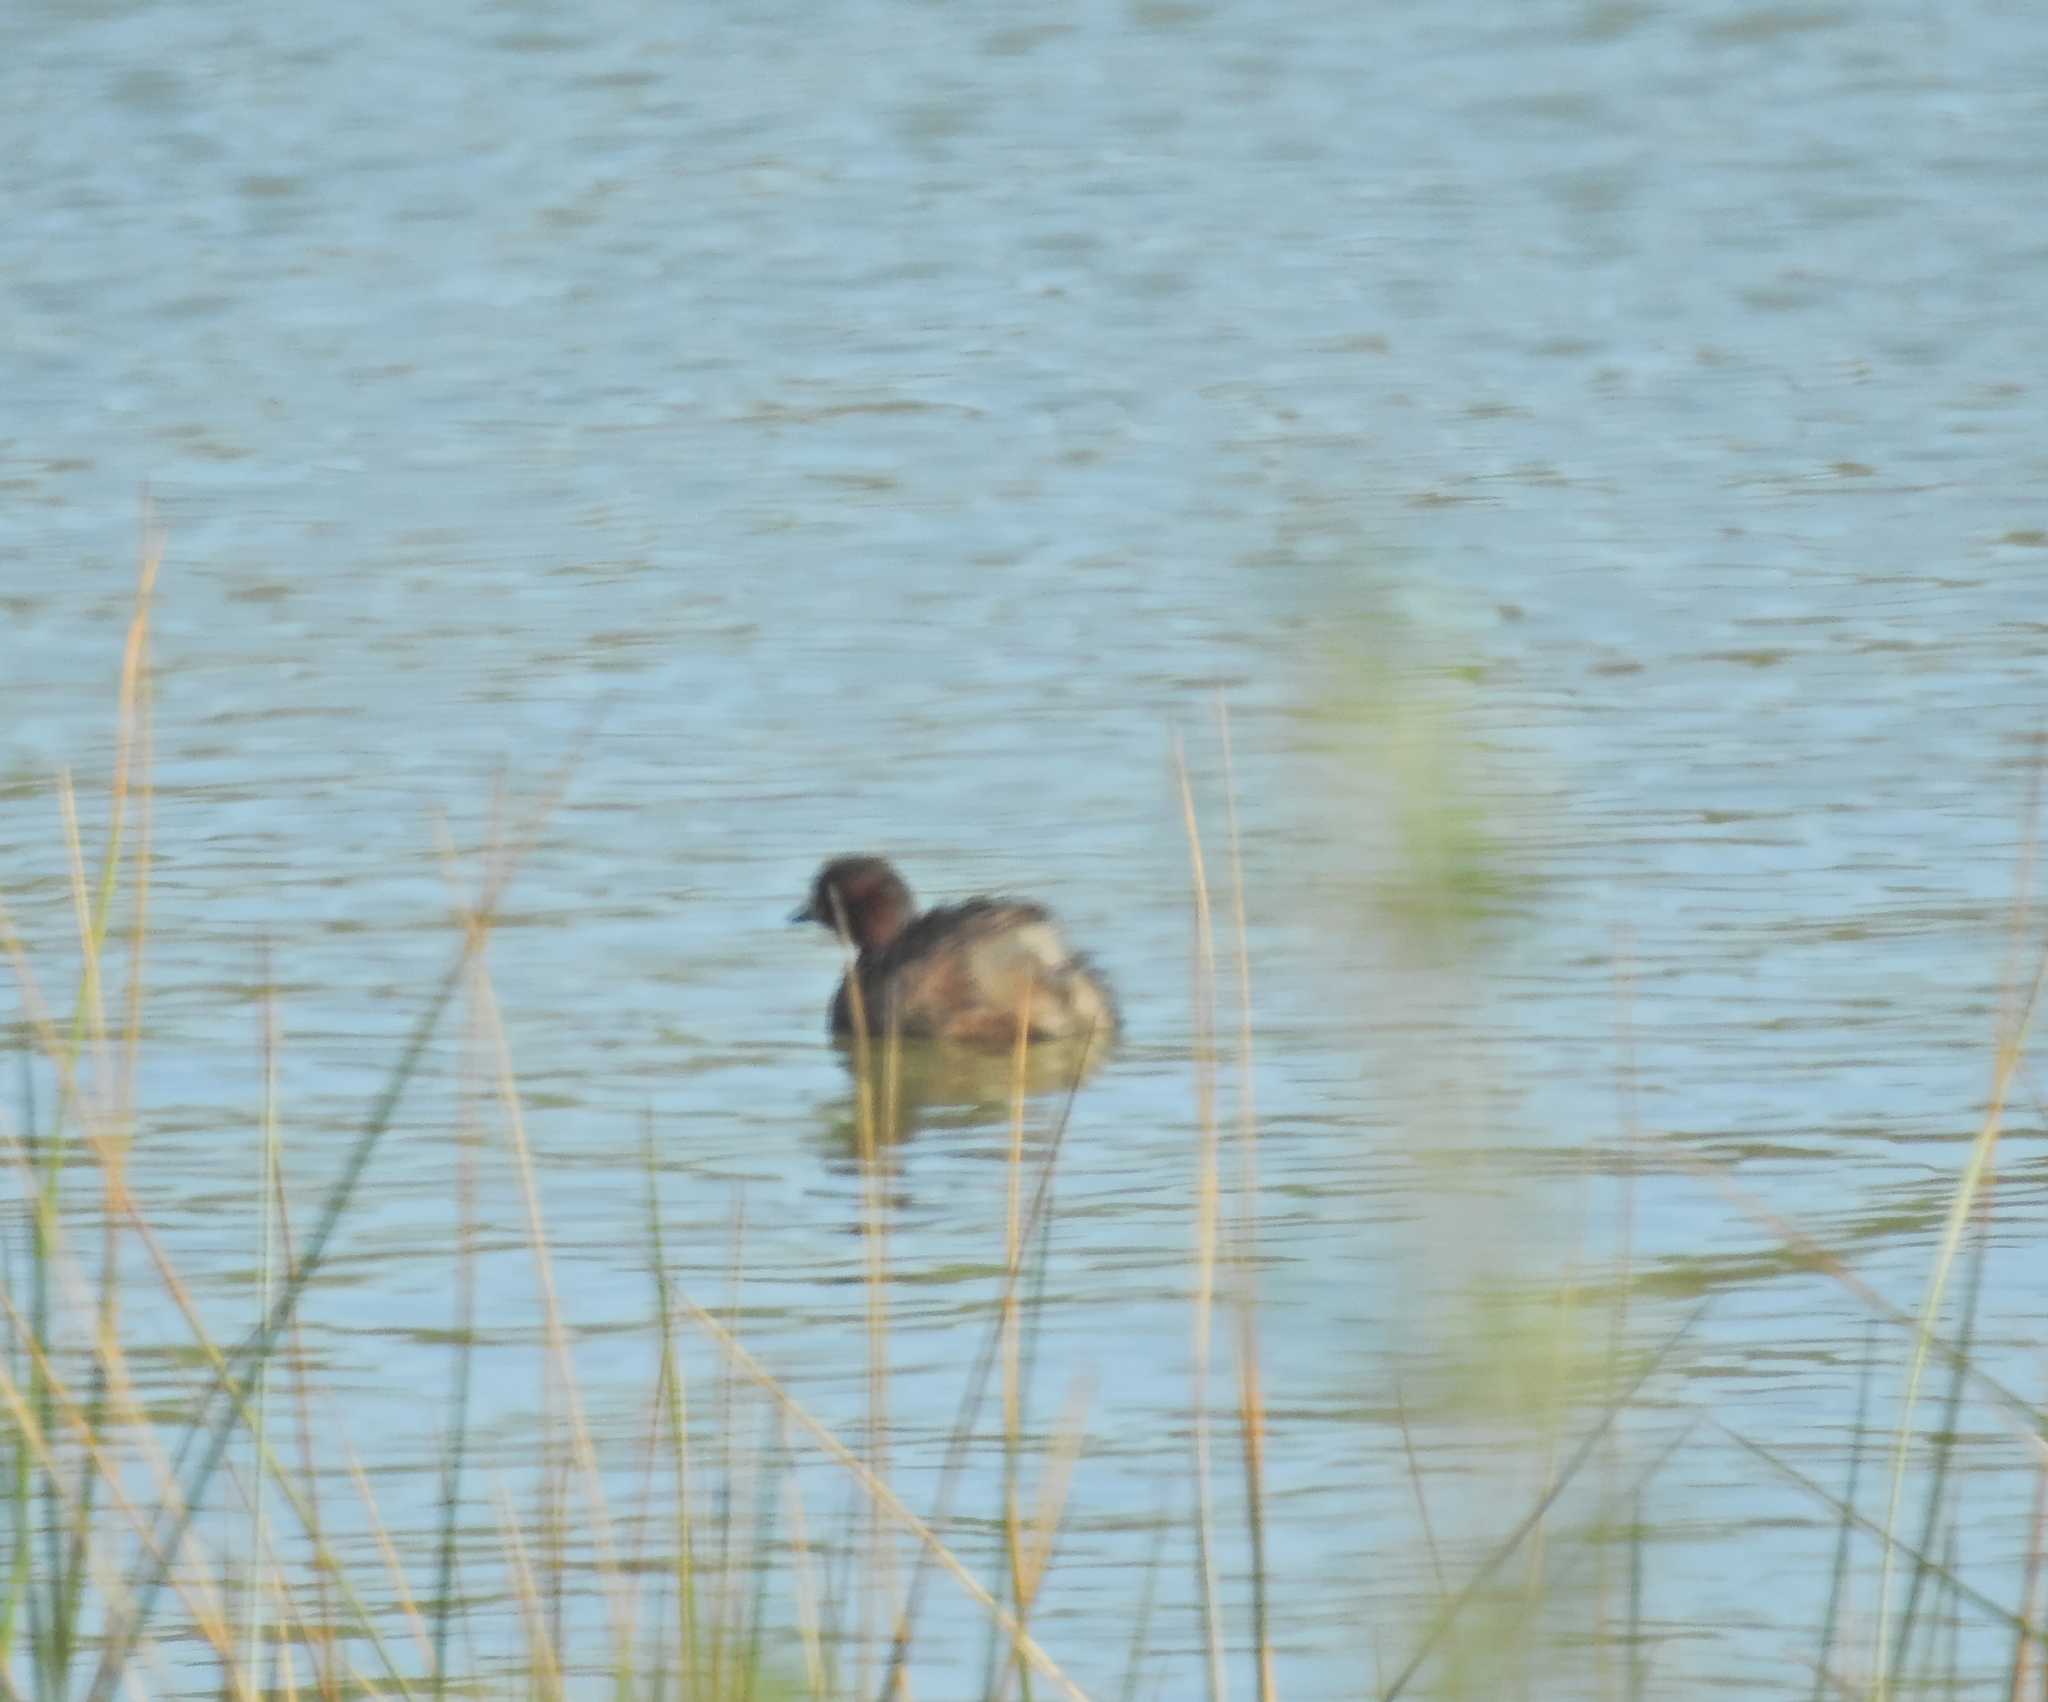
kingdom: Animalia
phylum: Chordata
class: Aves
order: Podicipediformes
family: Podicipedidae
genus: Tachybaptus
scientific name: Tachybaptus ruficollis
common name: Little grebe
